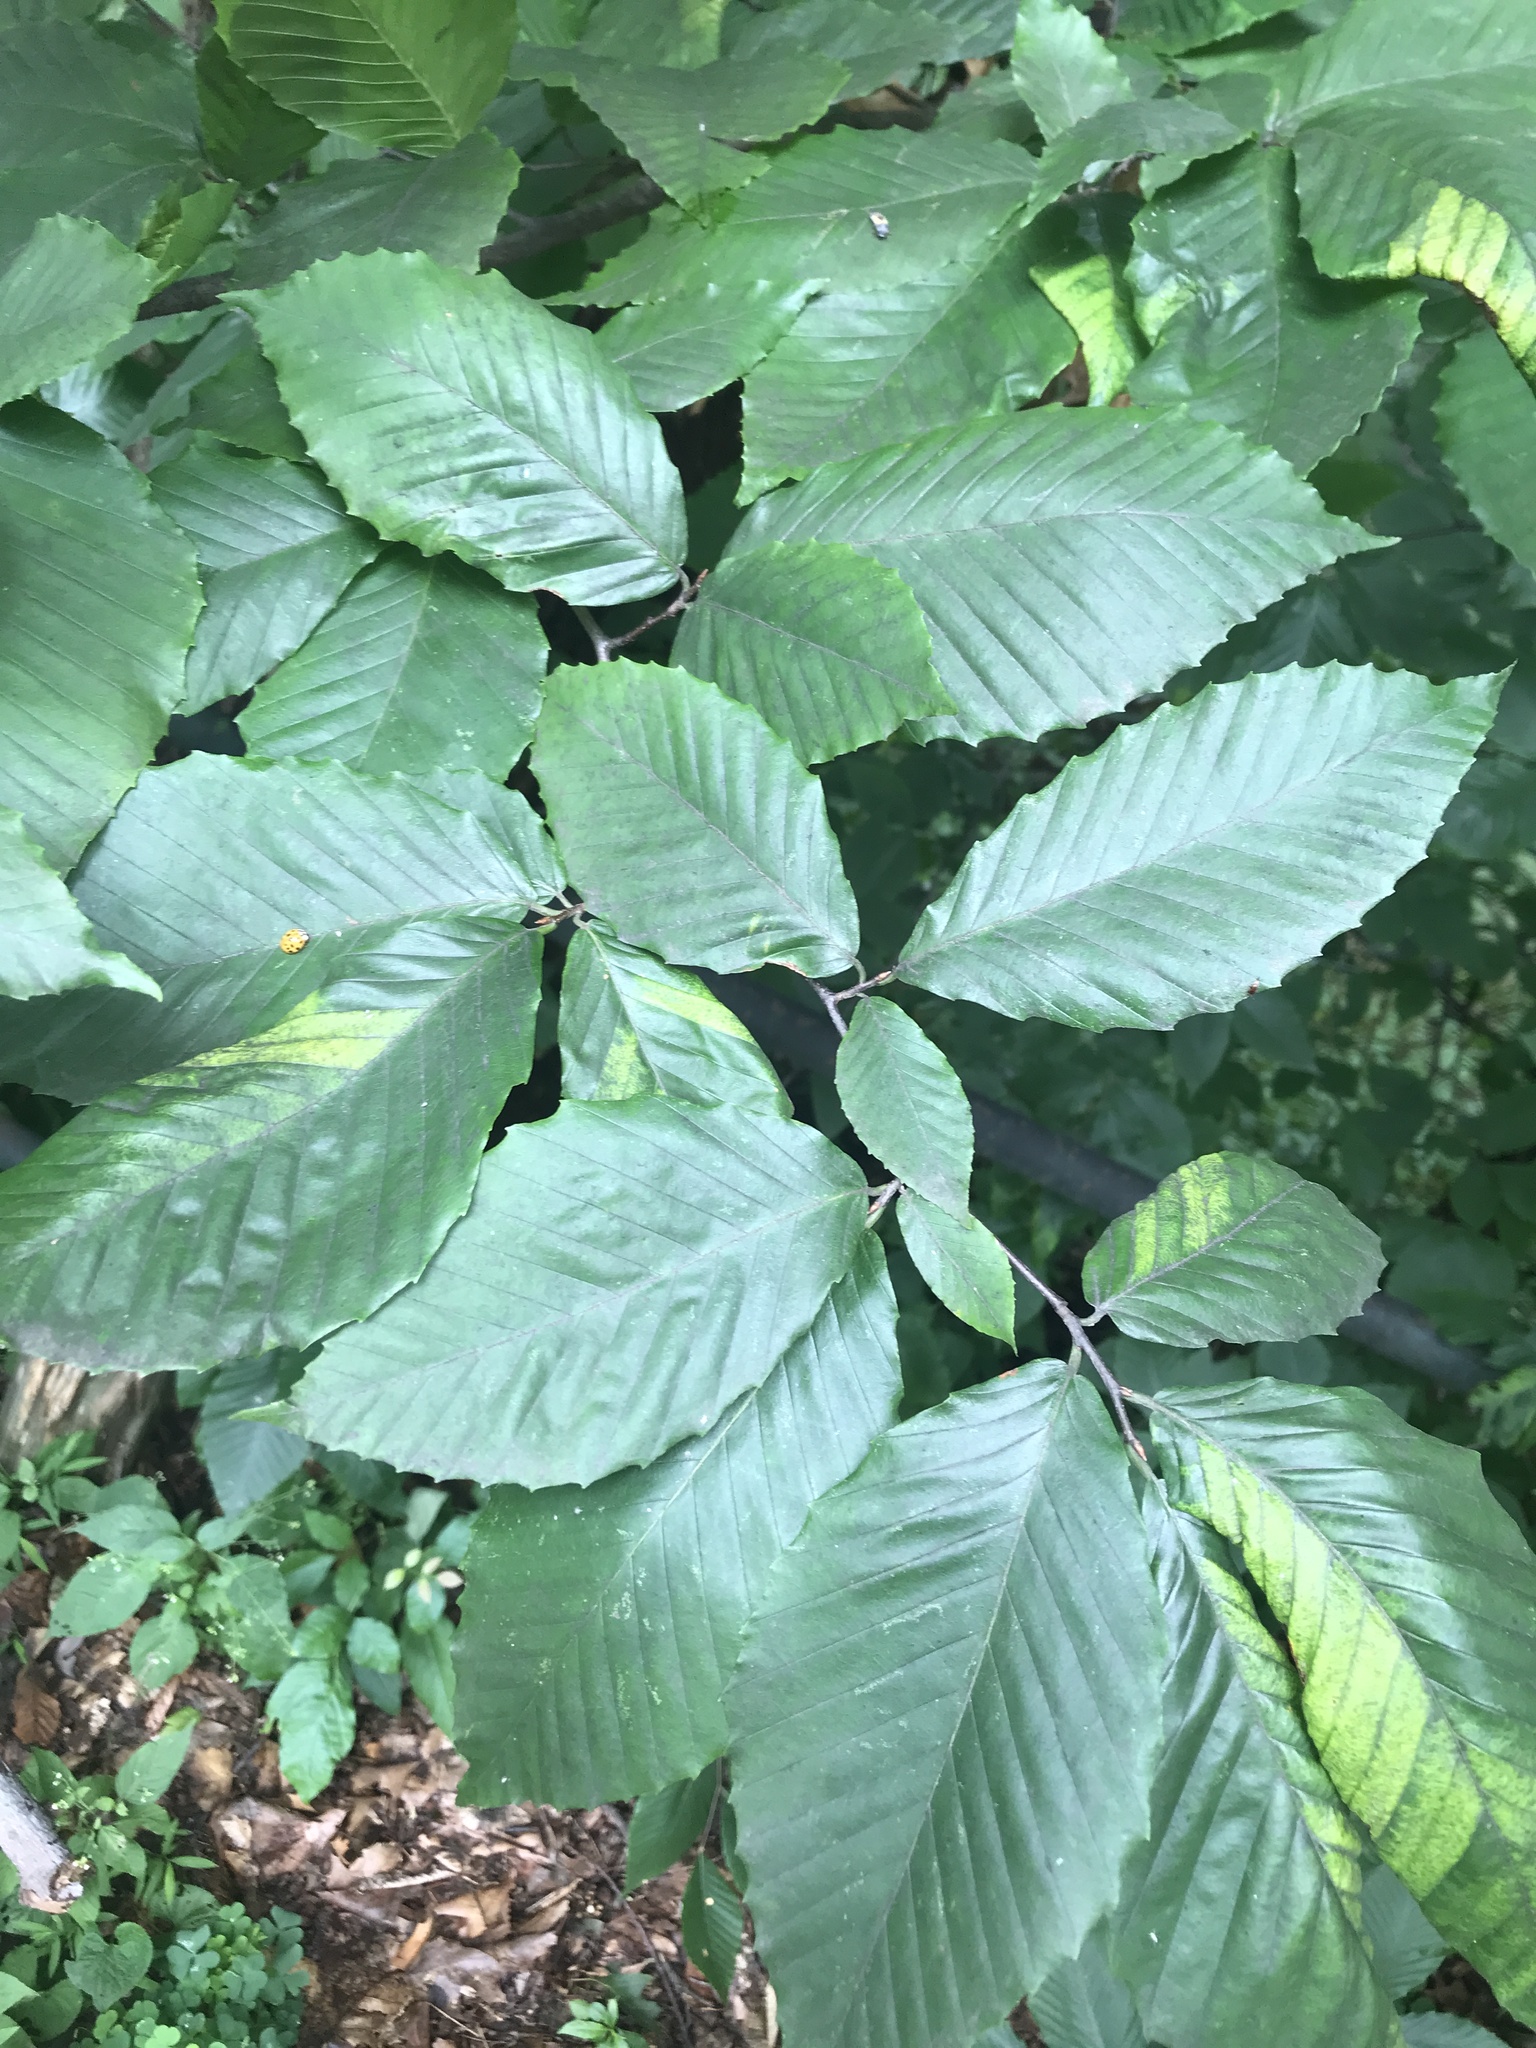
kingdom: Plantae
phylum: Tracheophyta
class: Magnoliopsida
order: Fagales
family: Fagaceae
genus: Fagus
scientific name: Fagus grandifolia
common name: American beech
